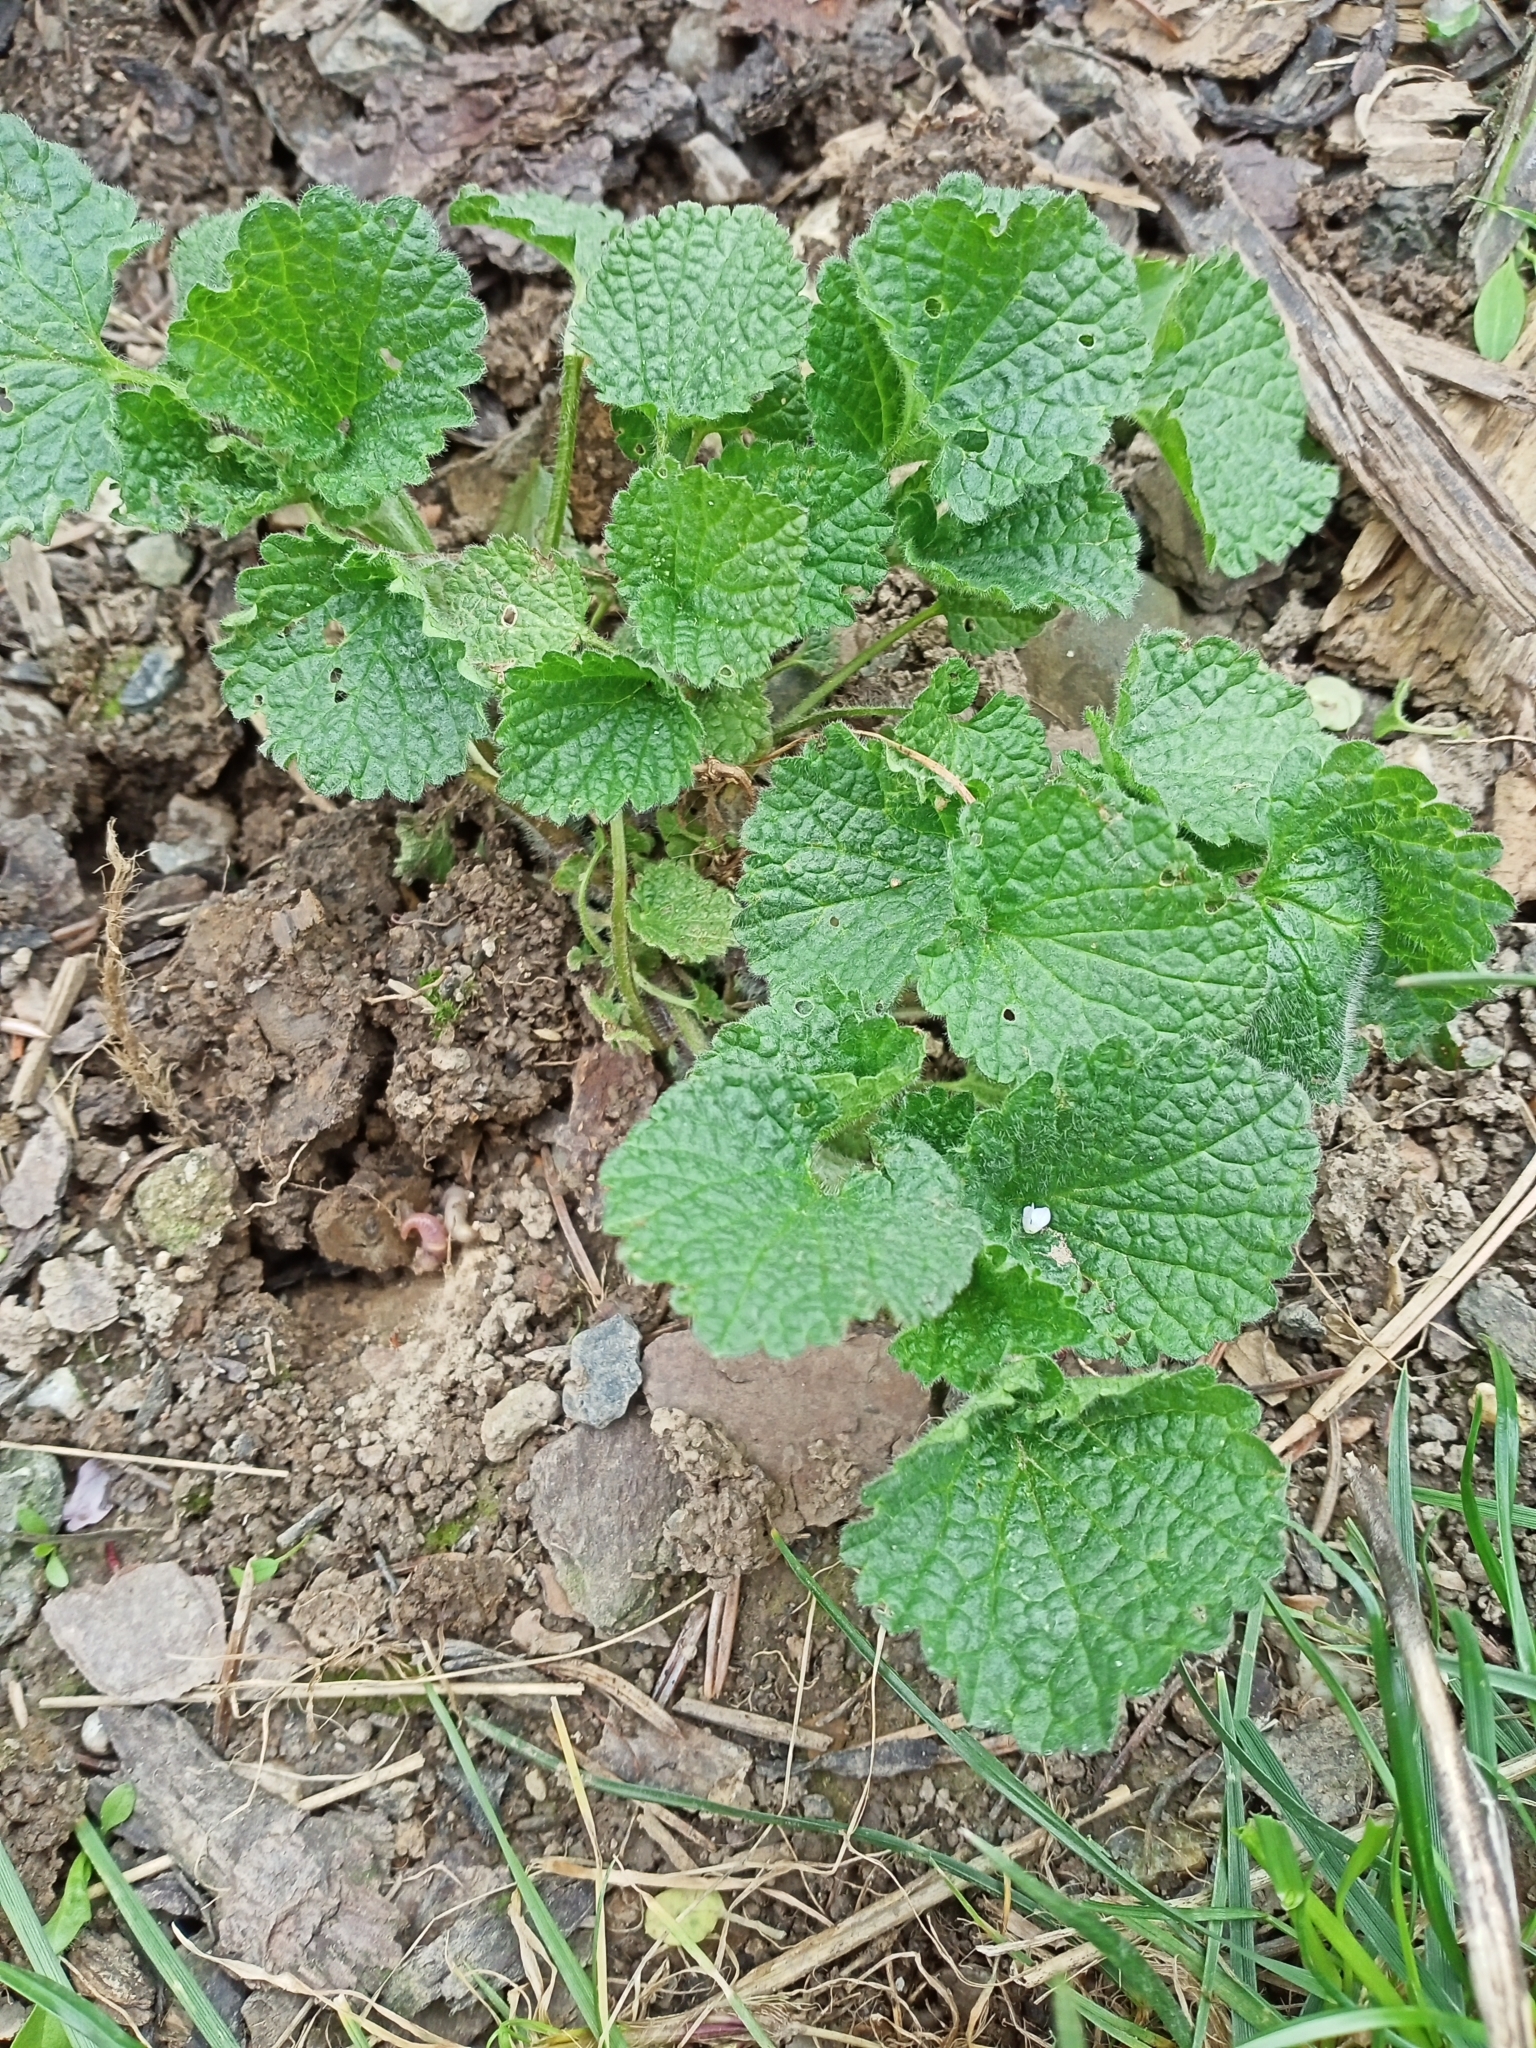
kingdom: Plantae
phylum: Tracheophyta
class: Magnoliopsida
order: Lamiales
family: Lamiaceae
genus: Ballota
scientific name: Ballota nigra
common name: Black horehound
